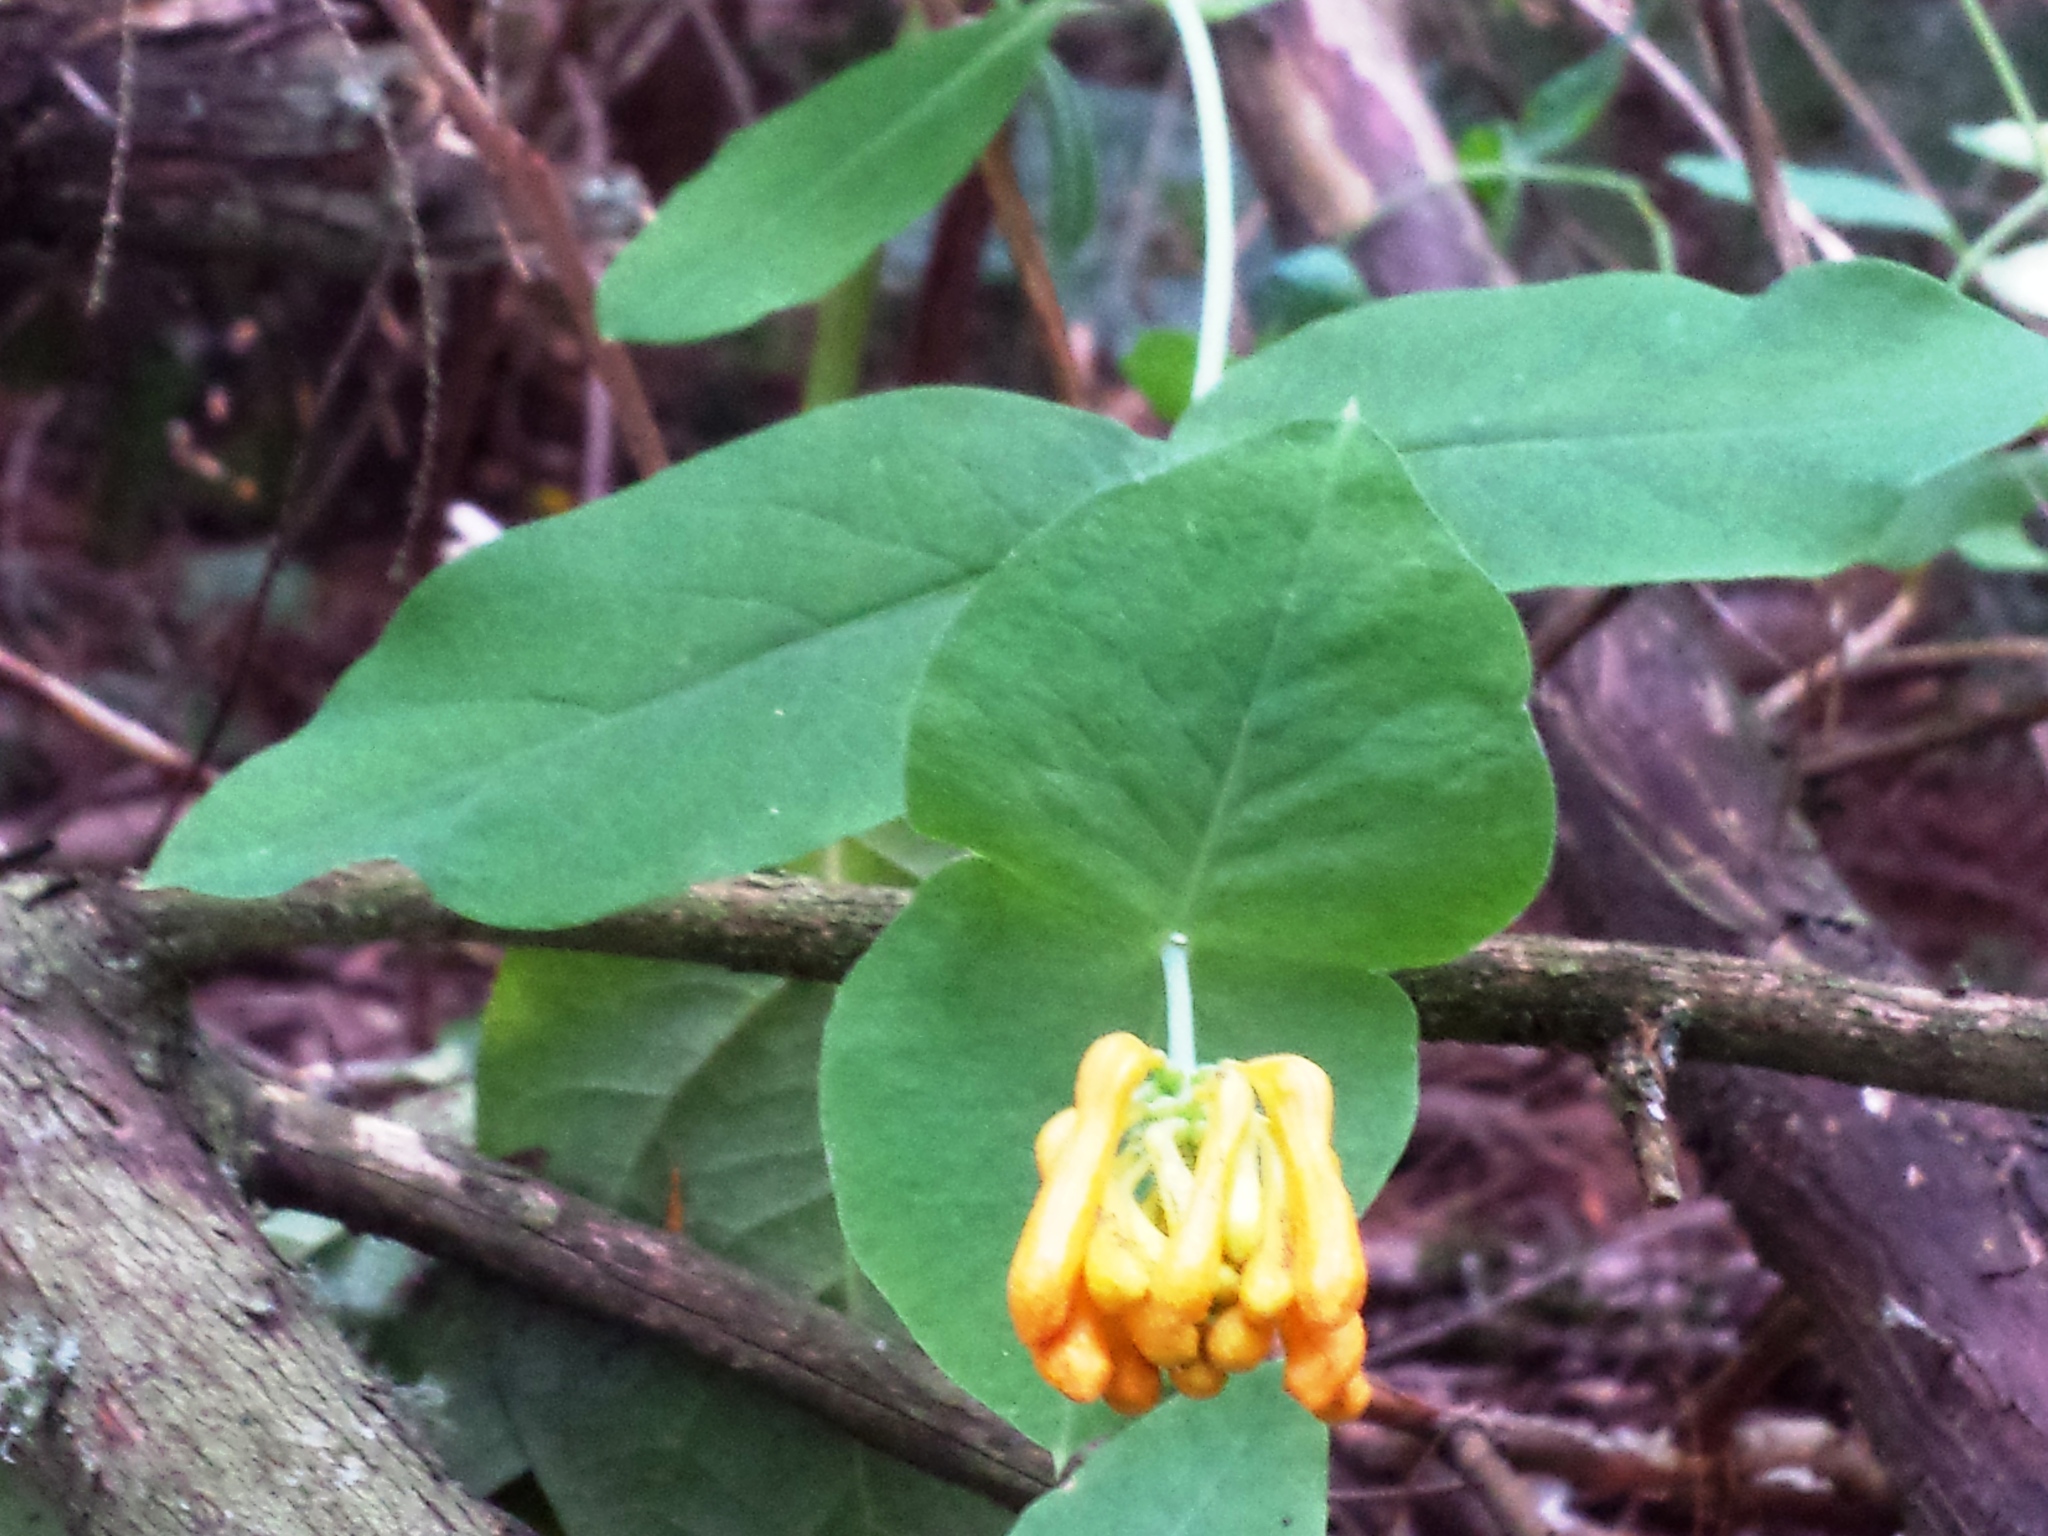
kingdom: Plantae
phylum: Tracheophyta
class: Magnoliopsida
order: Dipsacales
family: Caprifoliaceae
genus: Lonicera
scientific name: Lonicera ciliosa
